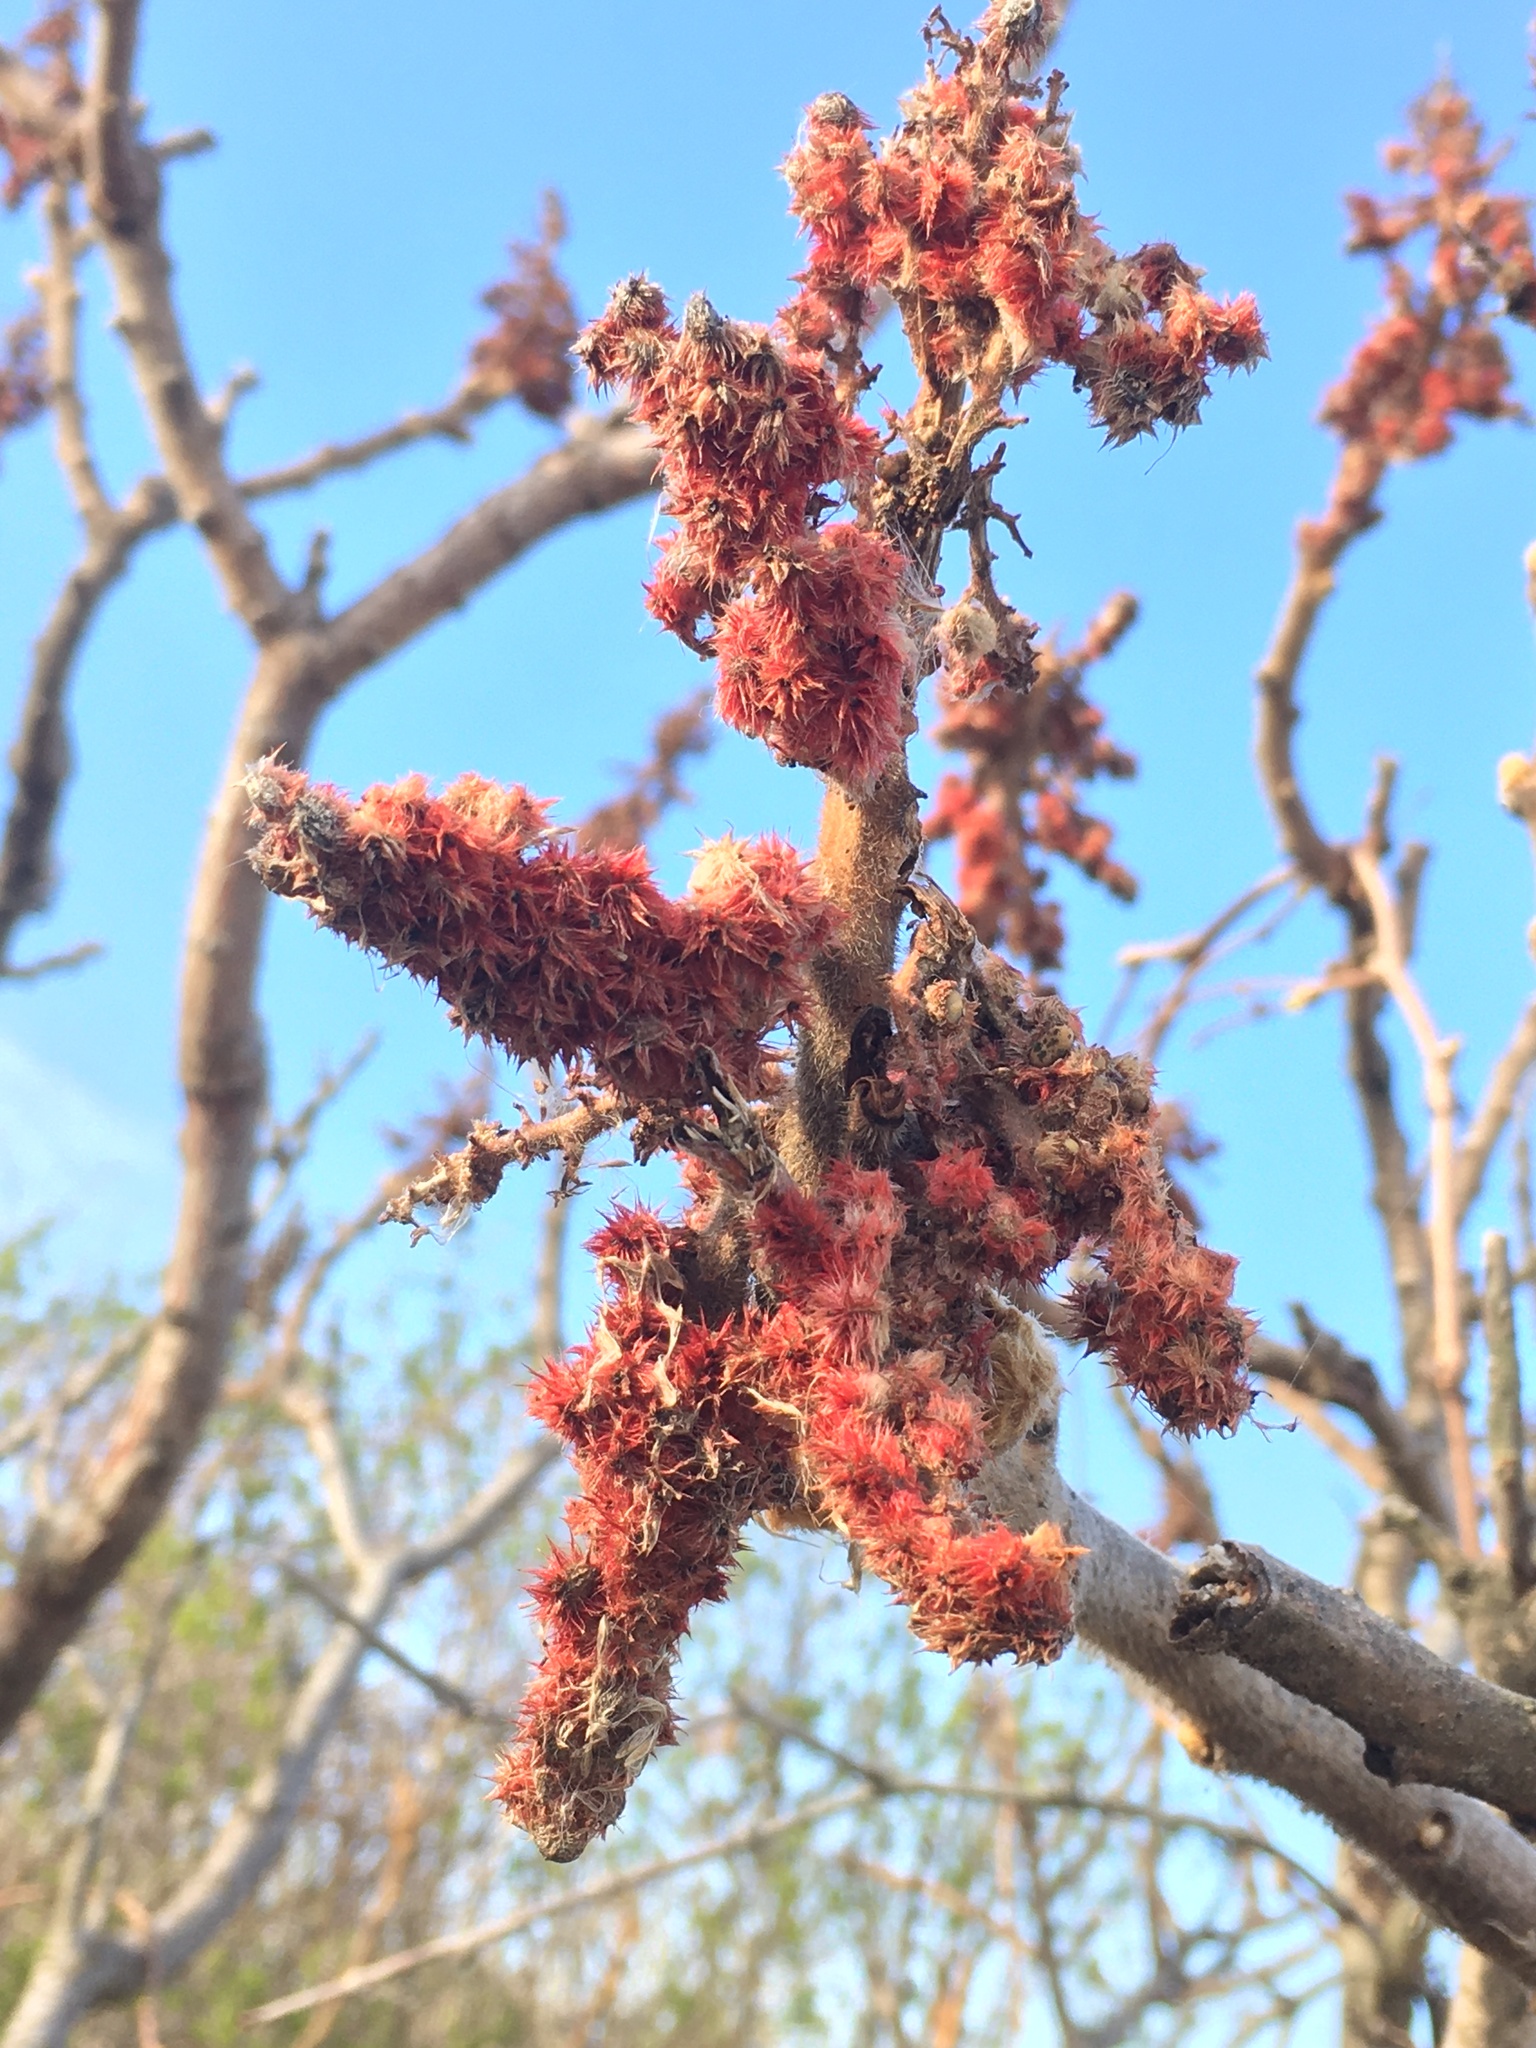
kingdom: Plantae
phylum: Tracheophyta
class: Magnoliopsida
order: Sapindales
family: Anacardiaceae
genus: Rhus
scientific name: Rhus typhina
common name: Staghorn sumac
